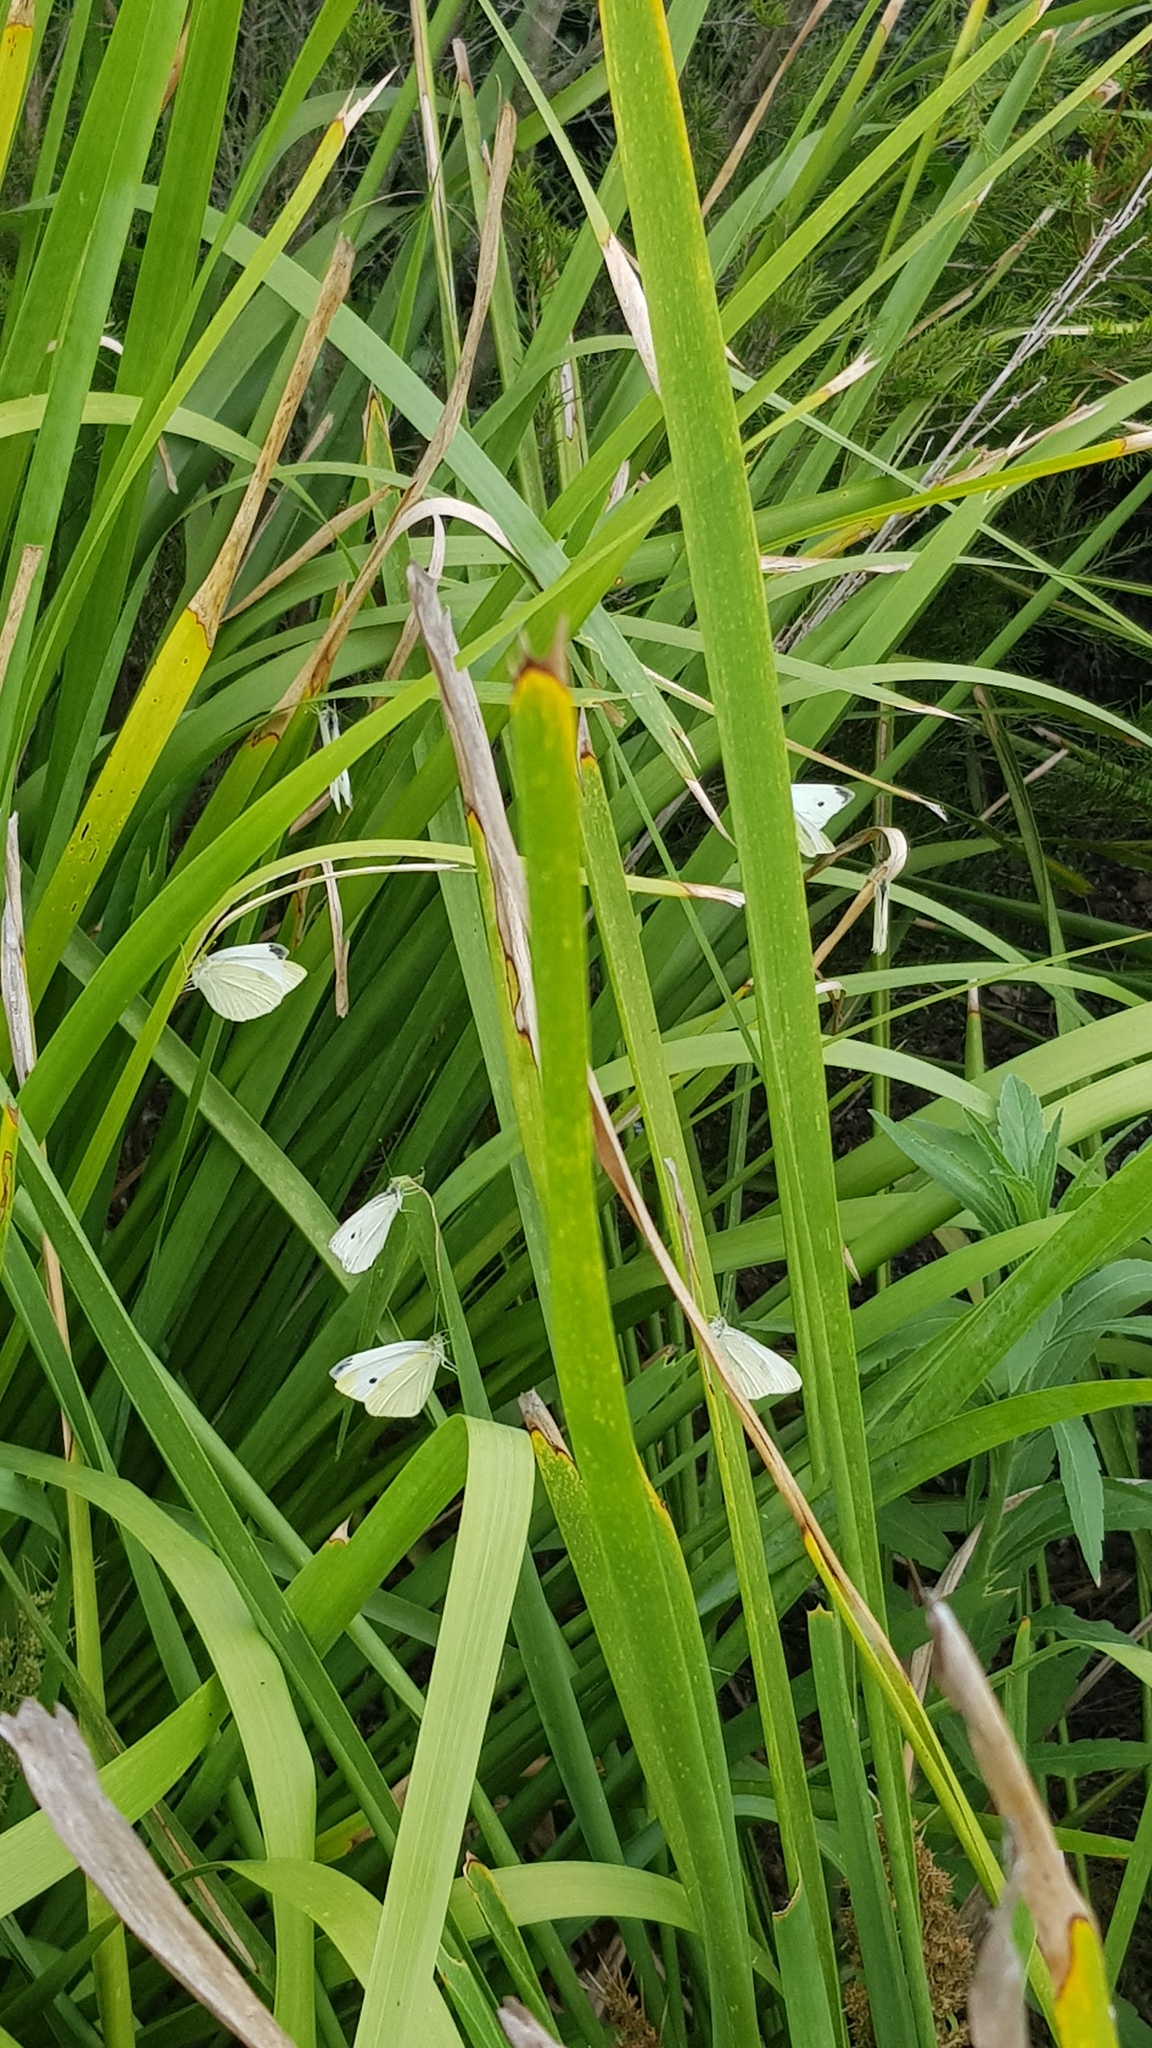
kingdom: Animalia
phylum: Arthropoda
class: Insecta
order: Lepidoptera
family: Pieridae
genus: Pieris
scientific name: Pieris rapae
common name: Small white
